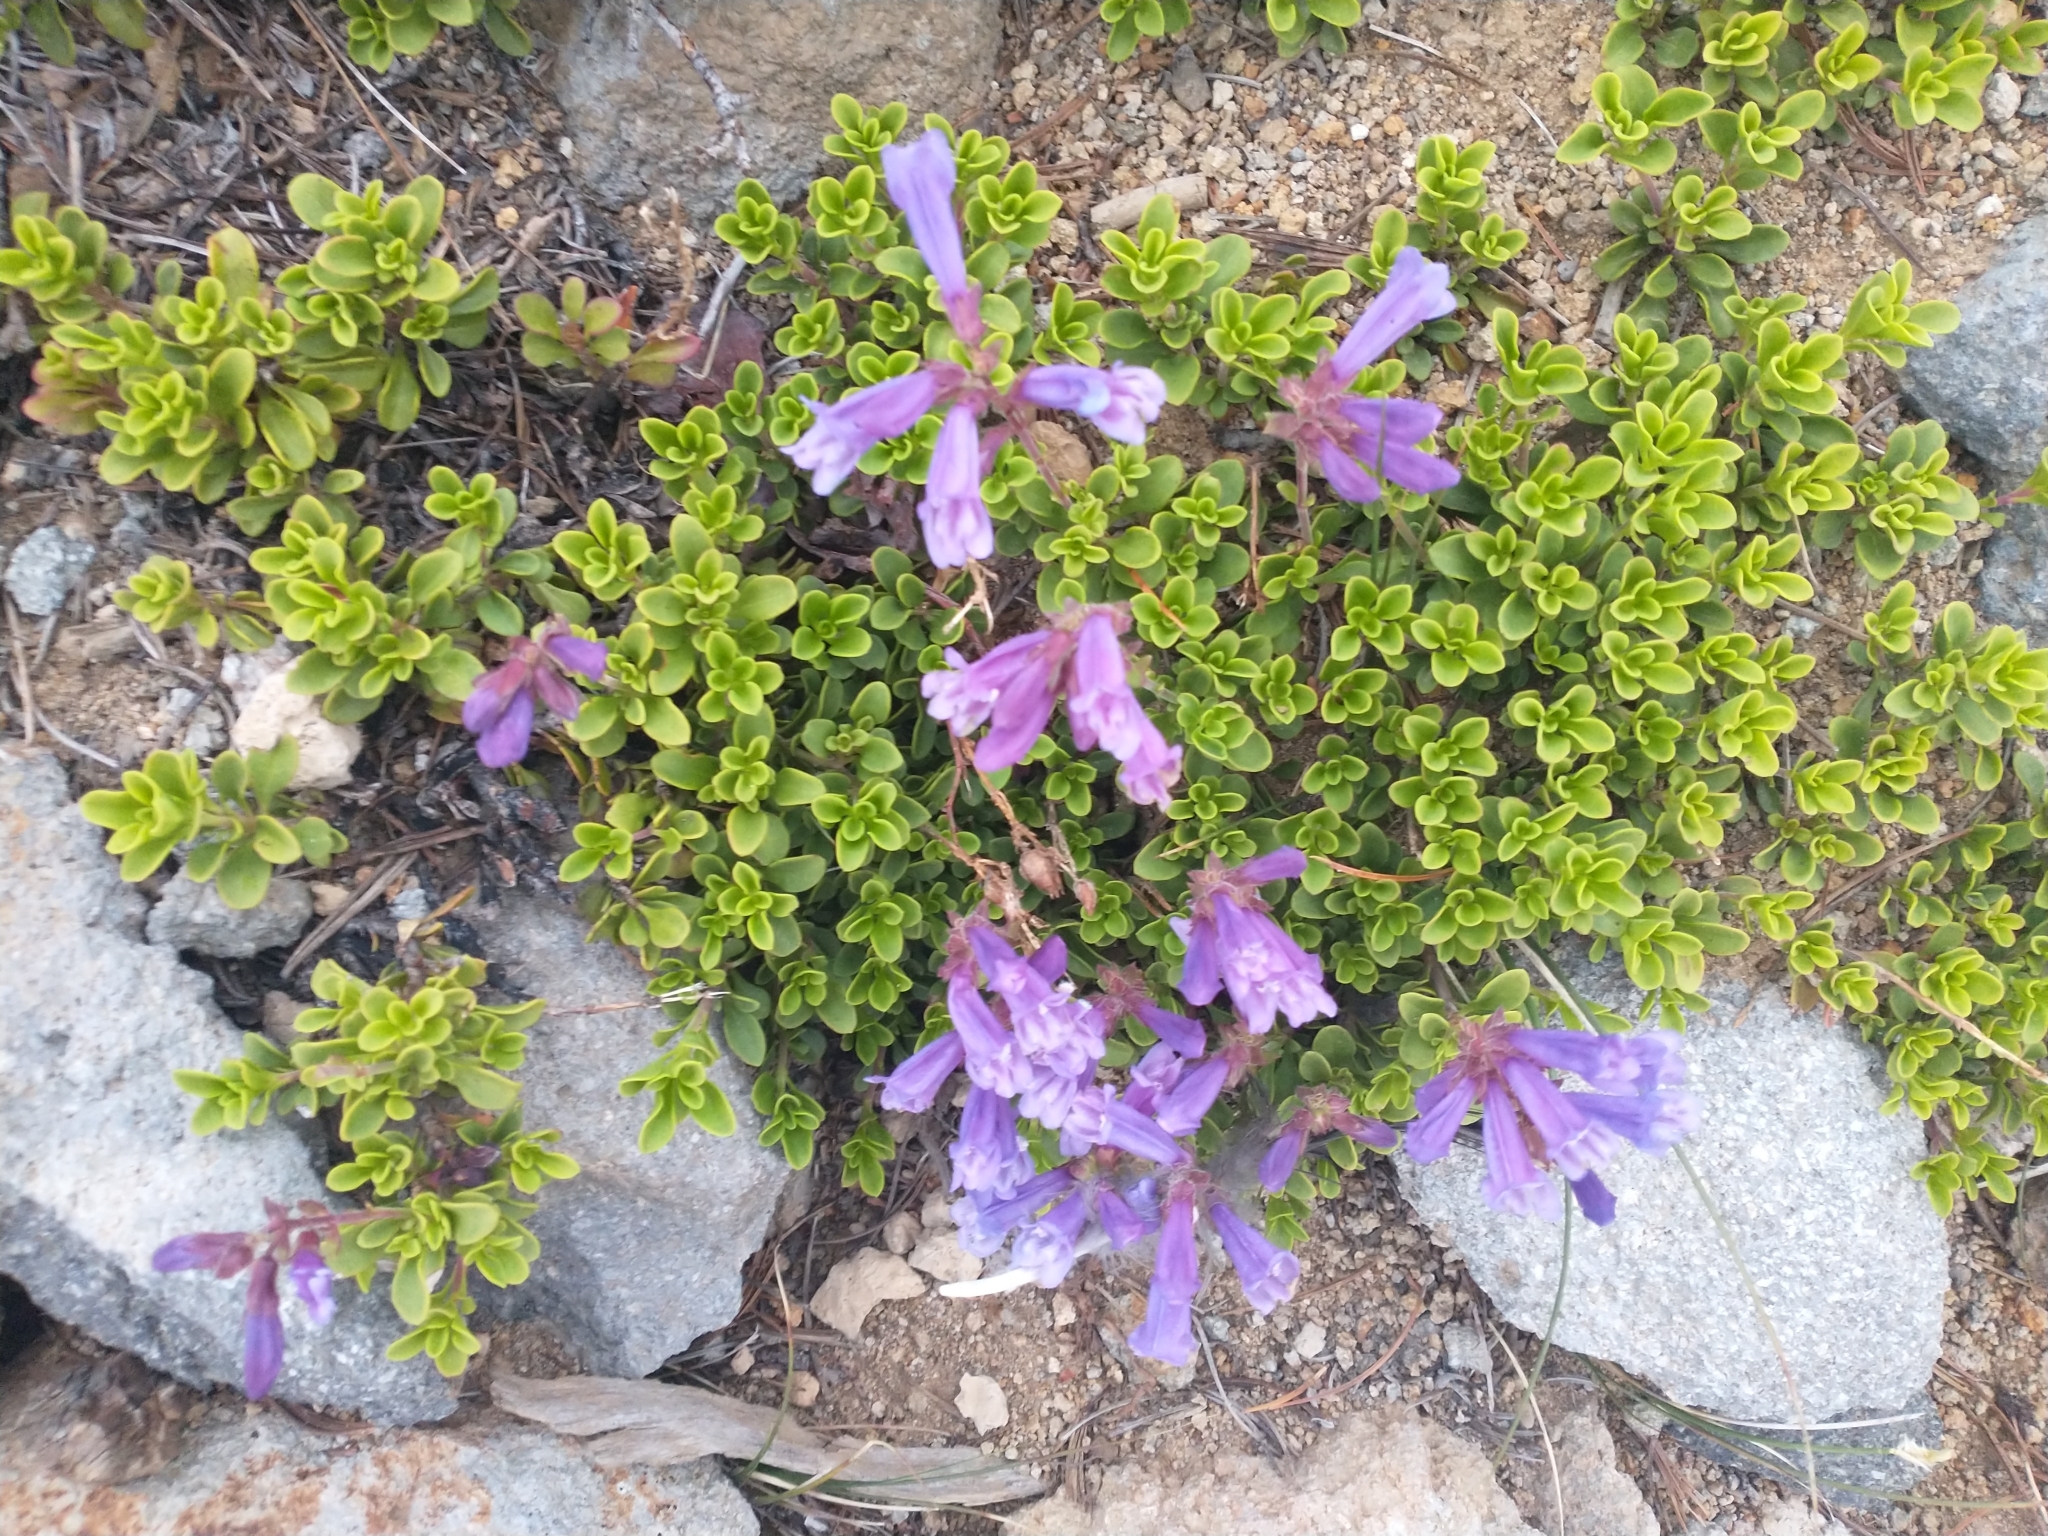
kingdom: Plantae
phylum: Tracheophyta
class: Magnoliopsida
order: Lamiales
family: Plantaginaceae
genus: Penstemon
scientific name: Penstemon davidsonii
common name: Davidson's penstemon
